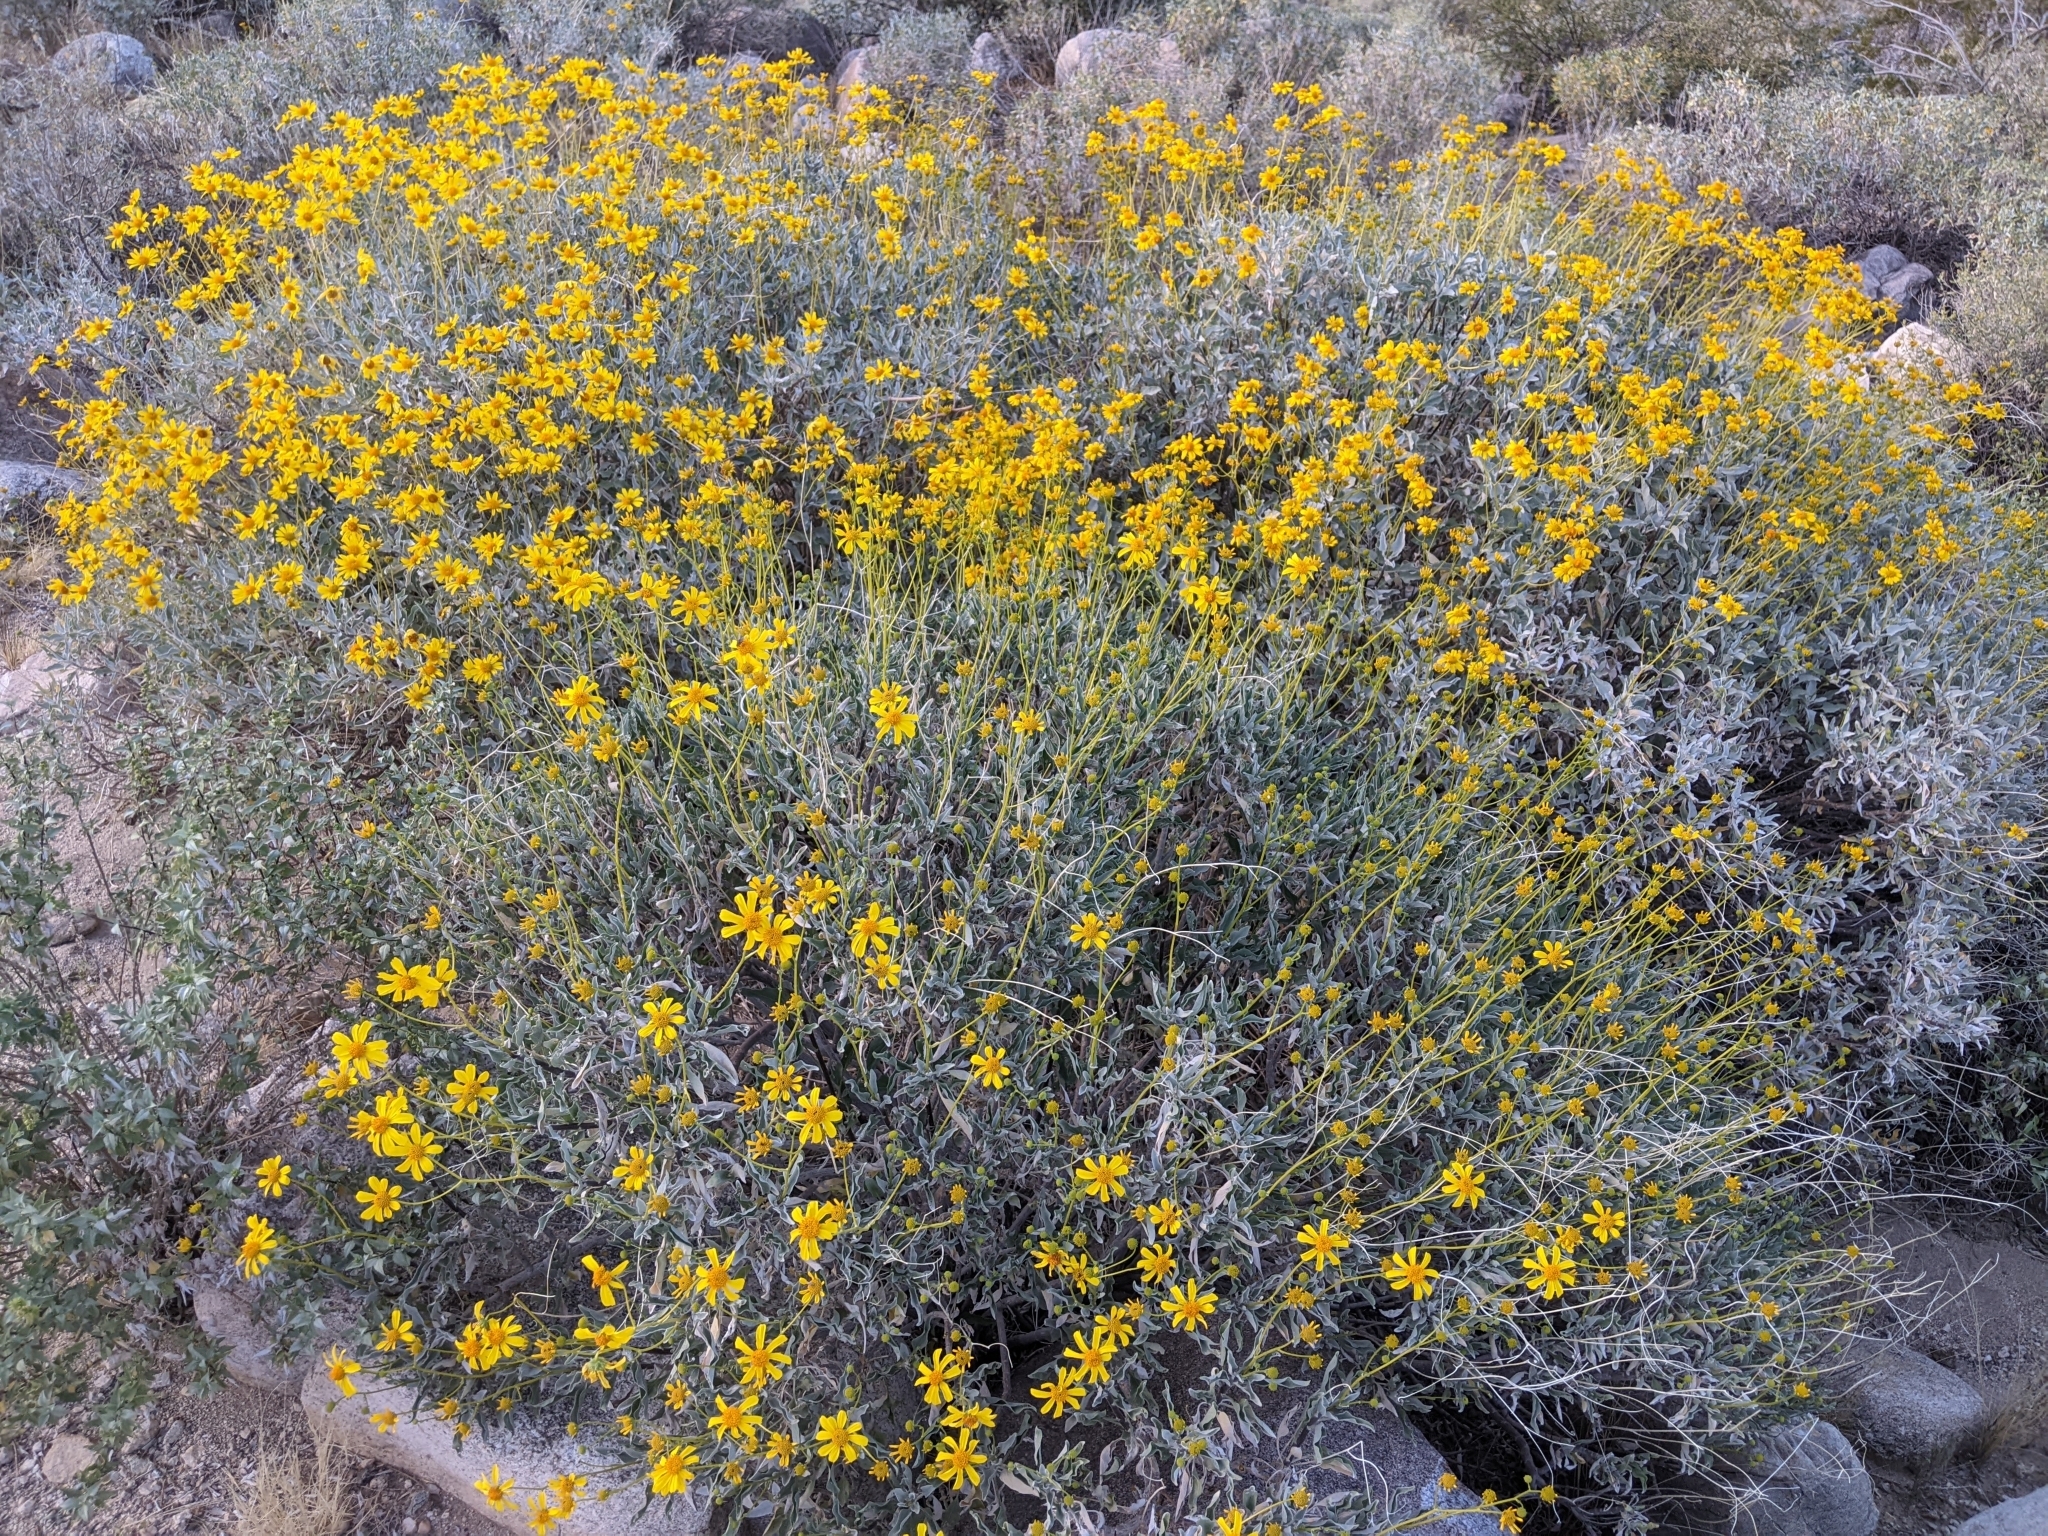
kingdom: Plantae
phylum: Tracheophyta
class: Magnoliopsida
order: Asterales
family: Asteraceae
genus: Encelia
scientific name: Encelia farinosa
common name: Brittlebush
